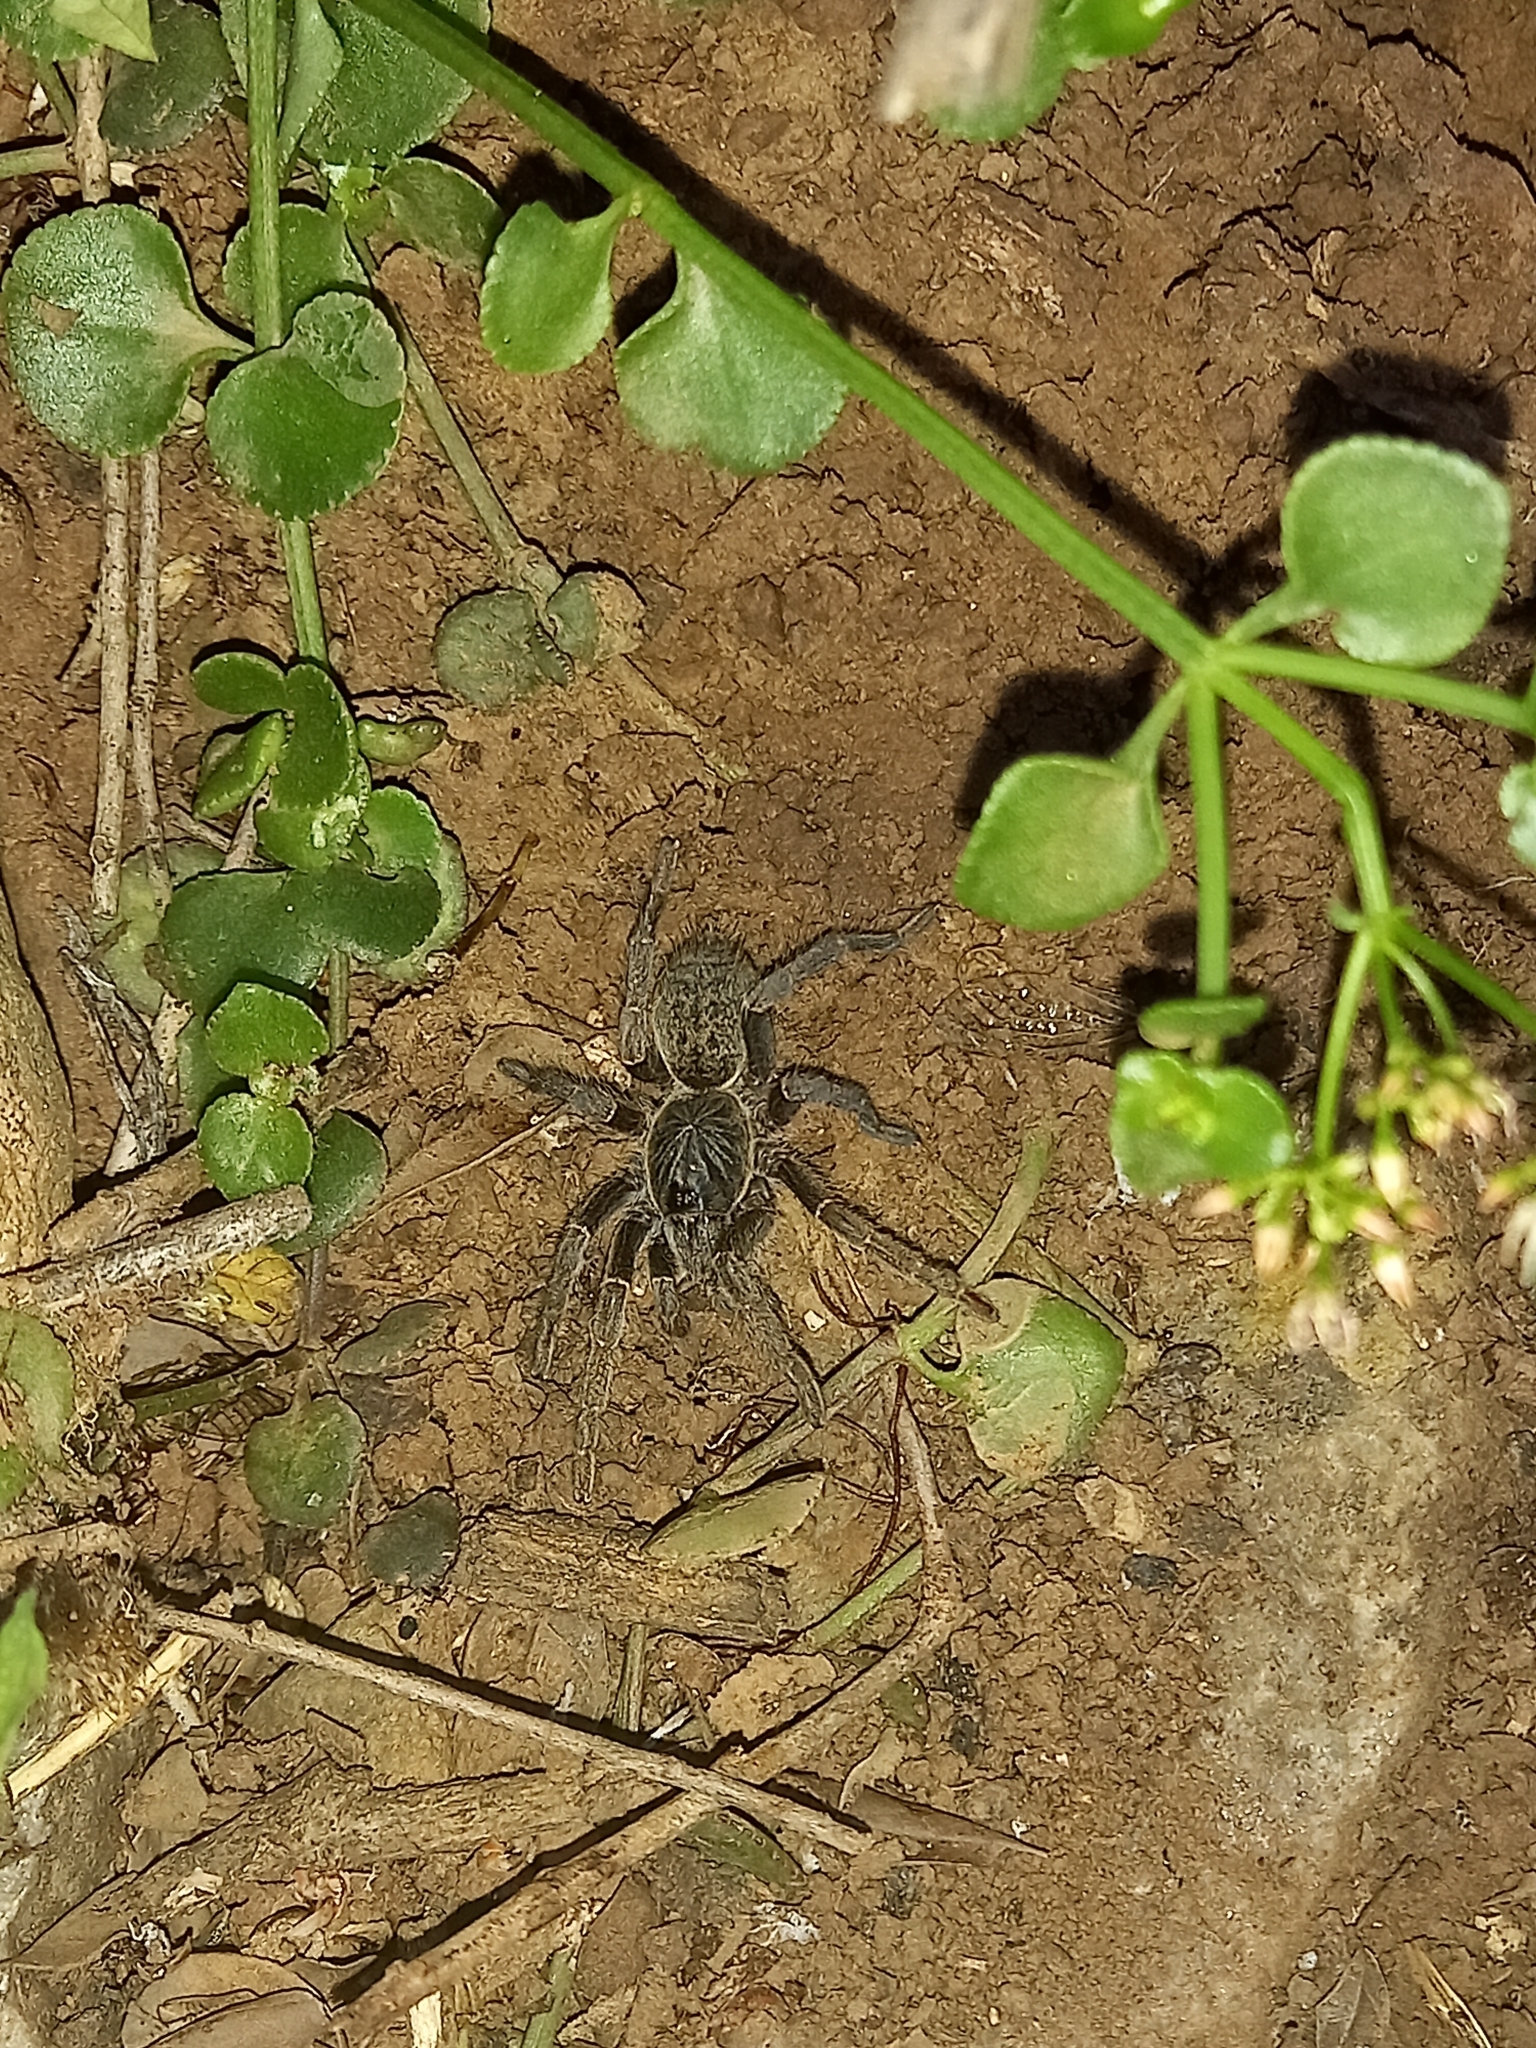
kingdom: Animalia
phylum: Arthropoda
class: Arachnida
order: Araneae
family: Theraphosidae
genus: Harpactirella
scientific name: Harpactirella magna
